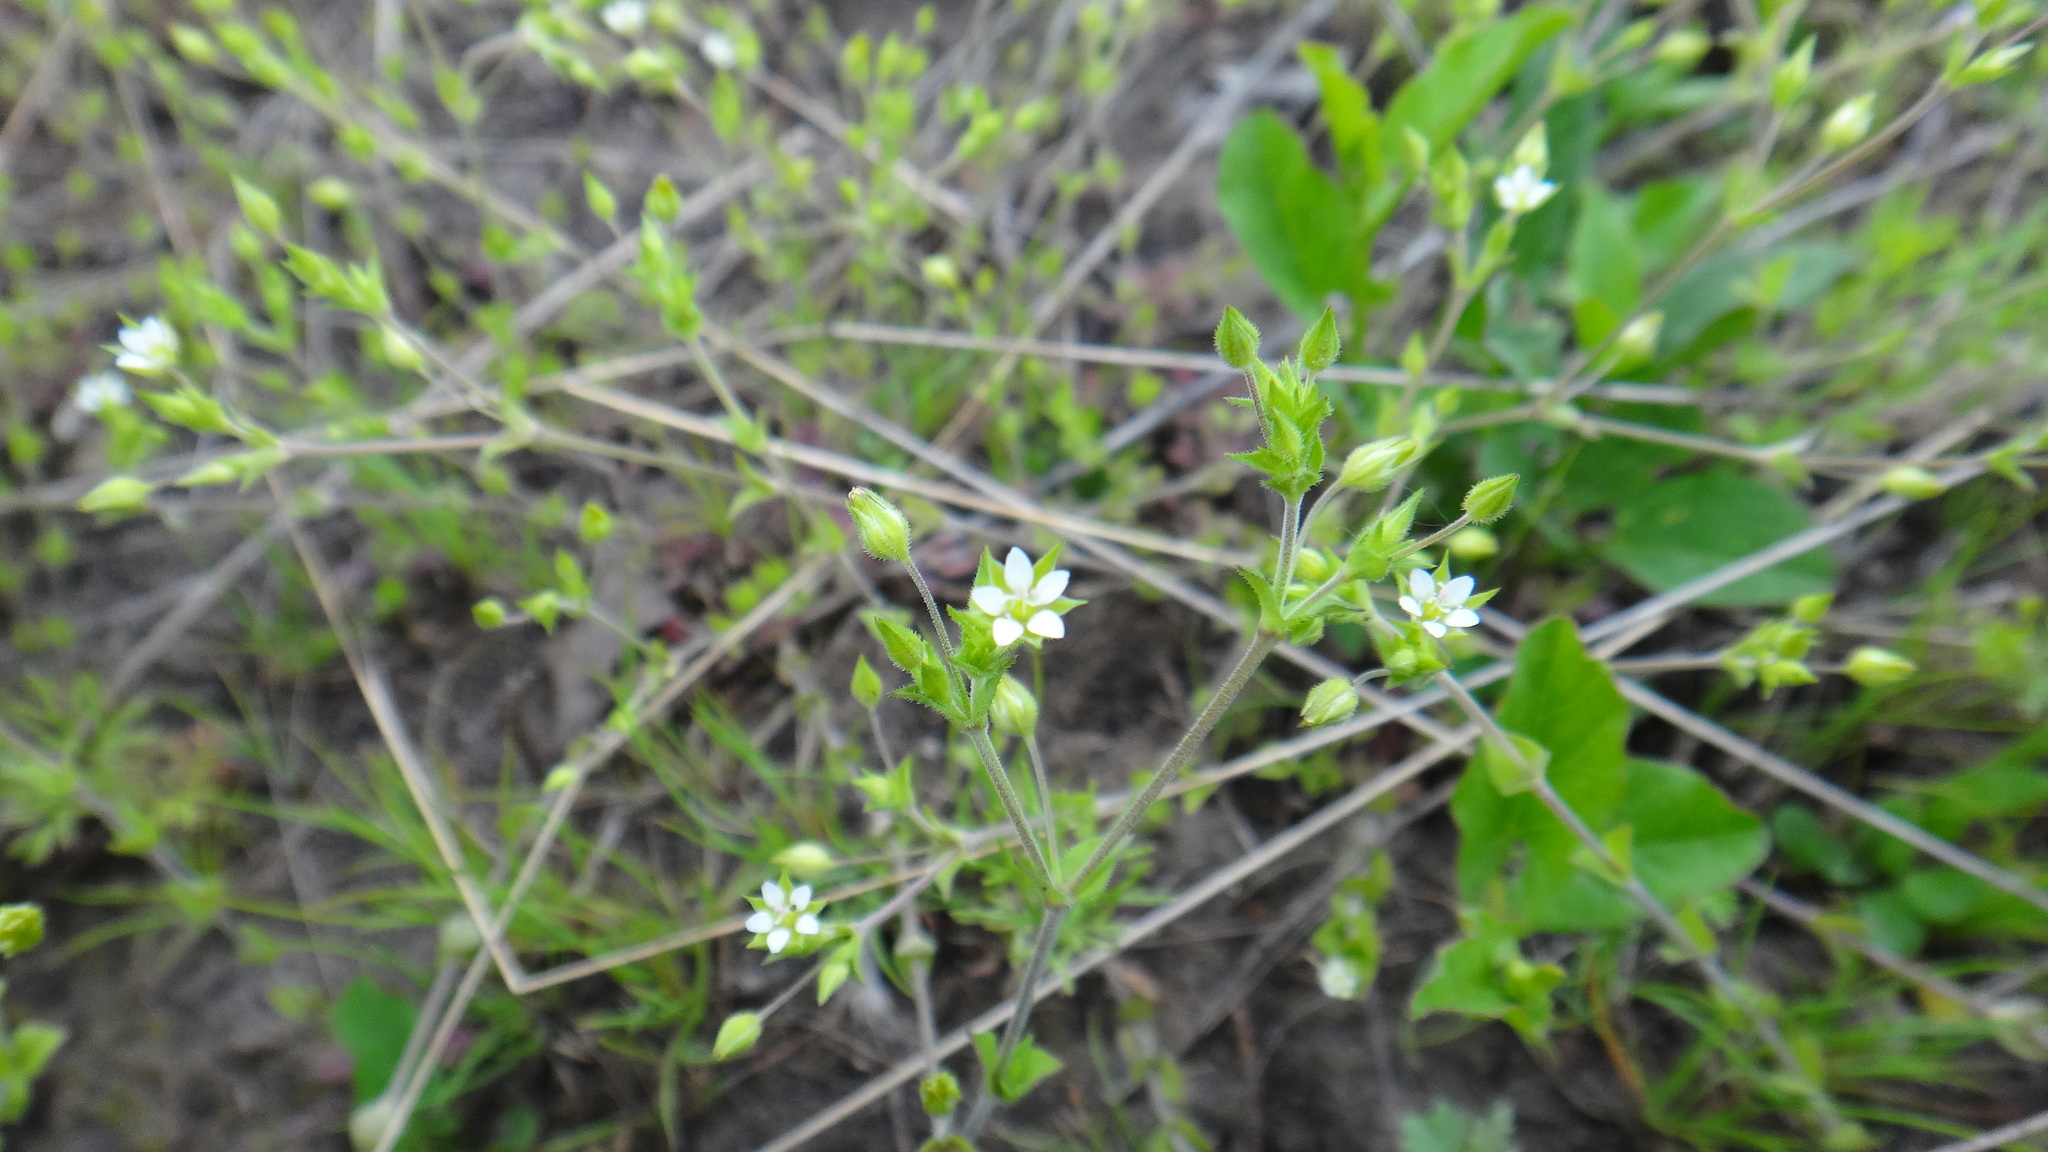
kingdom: Plantae
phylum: Tracheophyta
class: Magnoliopsida
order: Caryophyllales
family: Caryophyllaceae
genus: Arenaria
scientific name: Arenaria serpyllifolia
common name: Thyme-leaved sandwort
